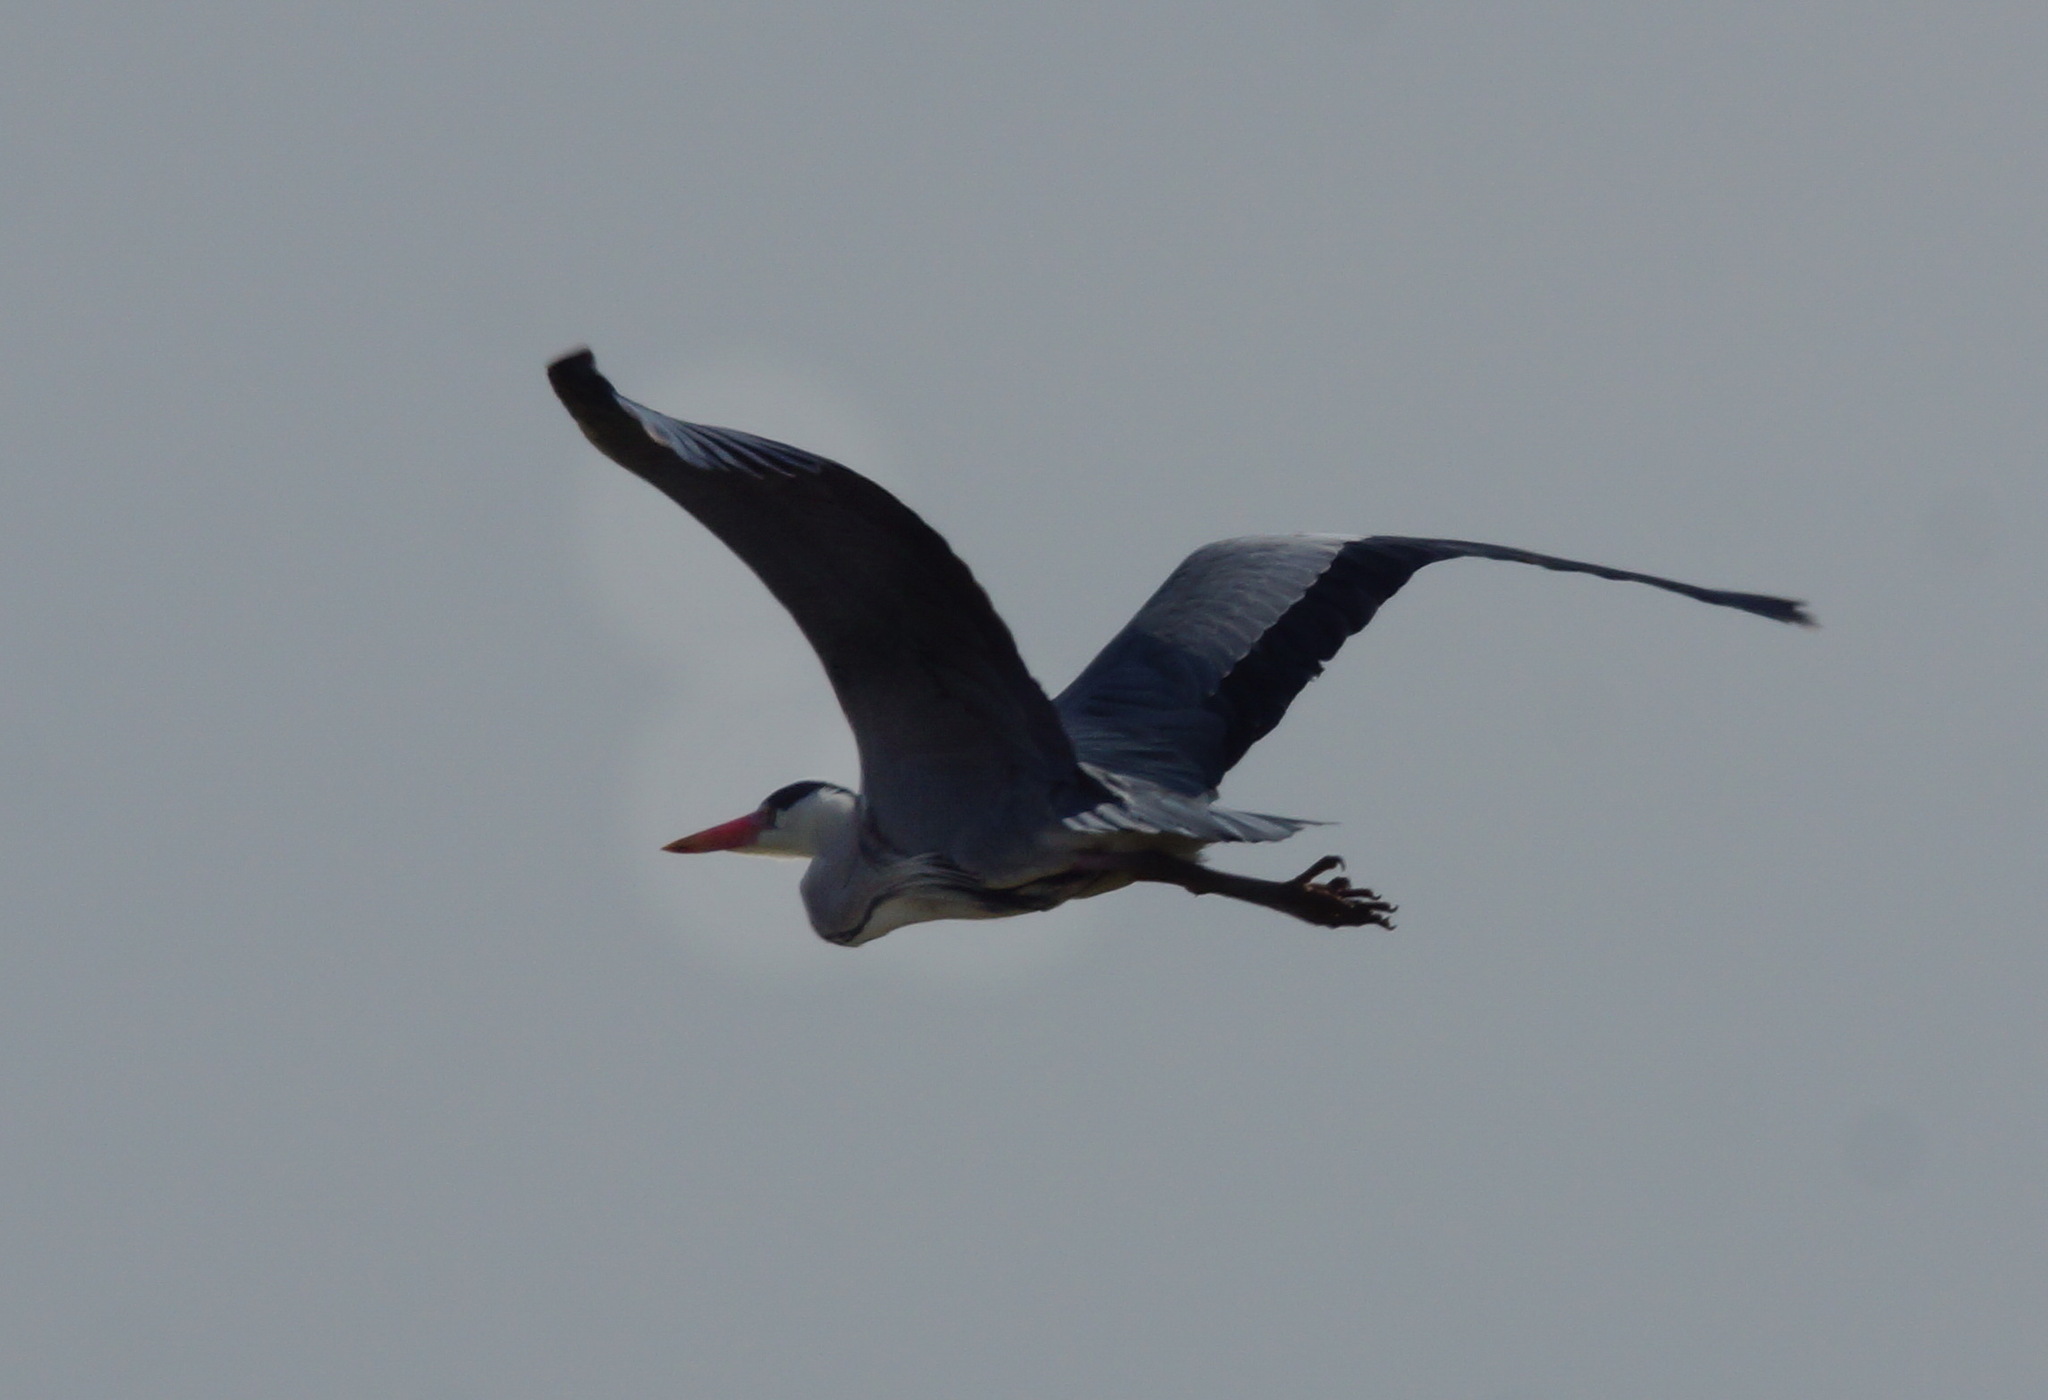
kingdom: Animalia
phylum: Chordata
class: Aves
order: Pelecaniformes
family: Ardeidae
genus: Ardea
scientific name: Ardea cinerea
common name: Grey heron
